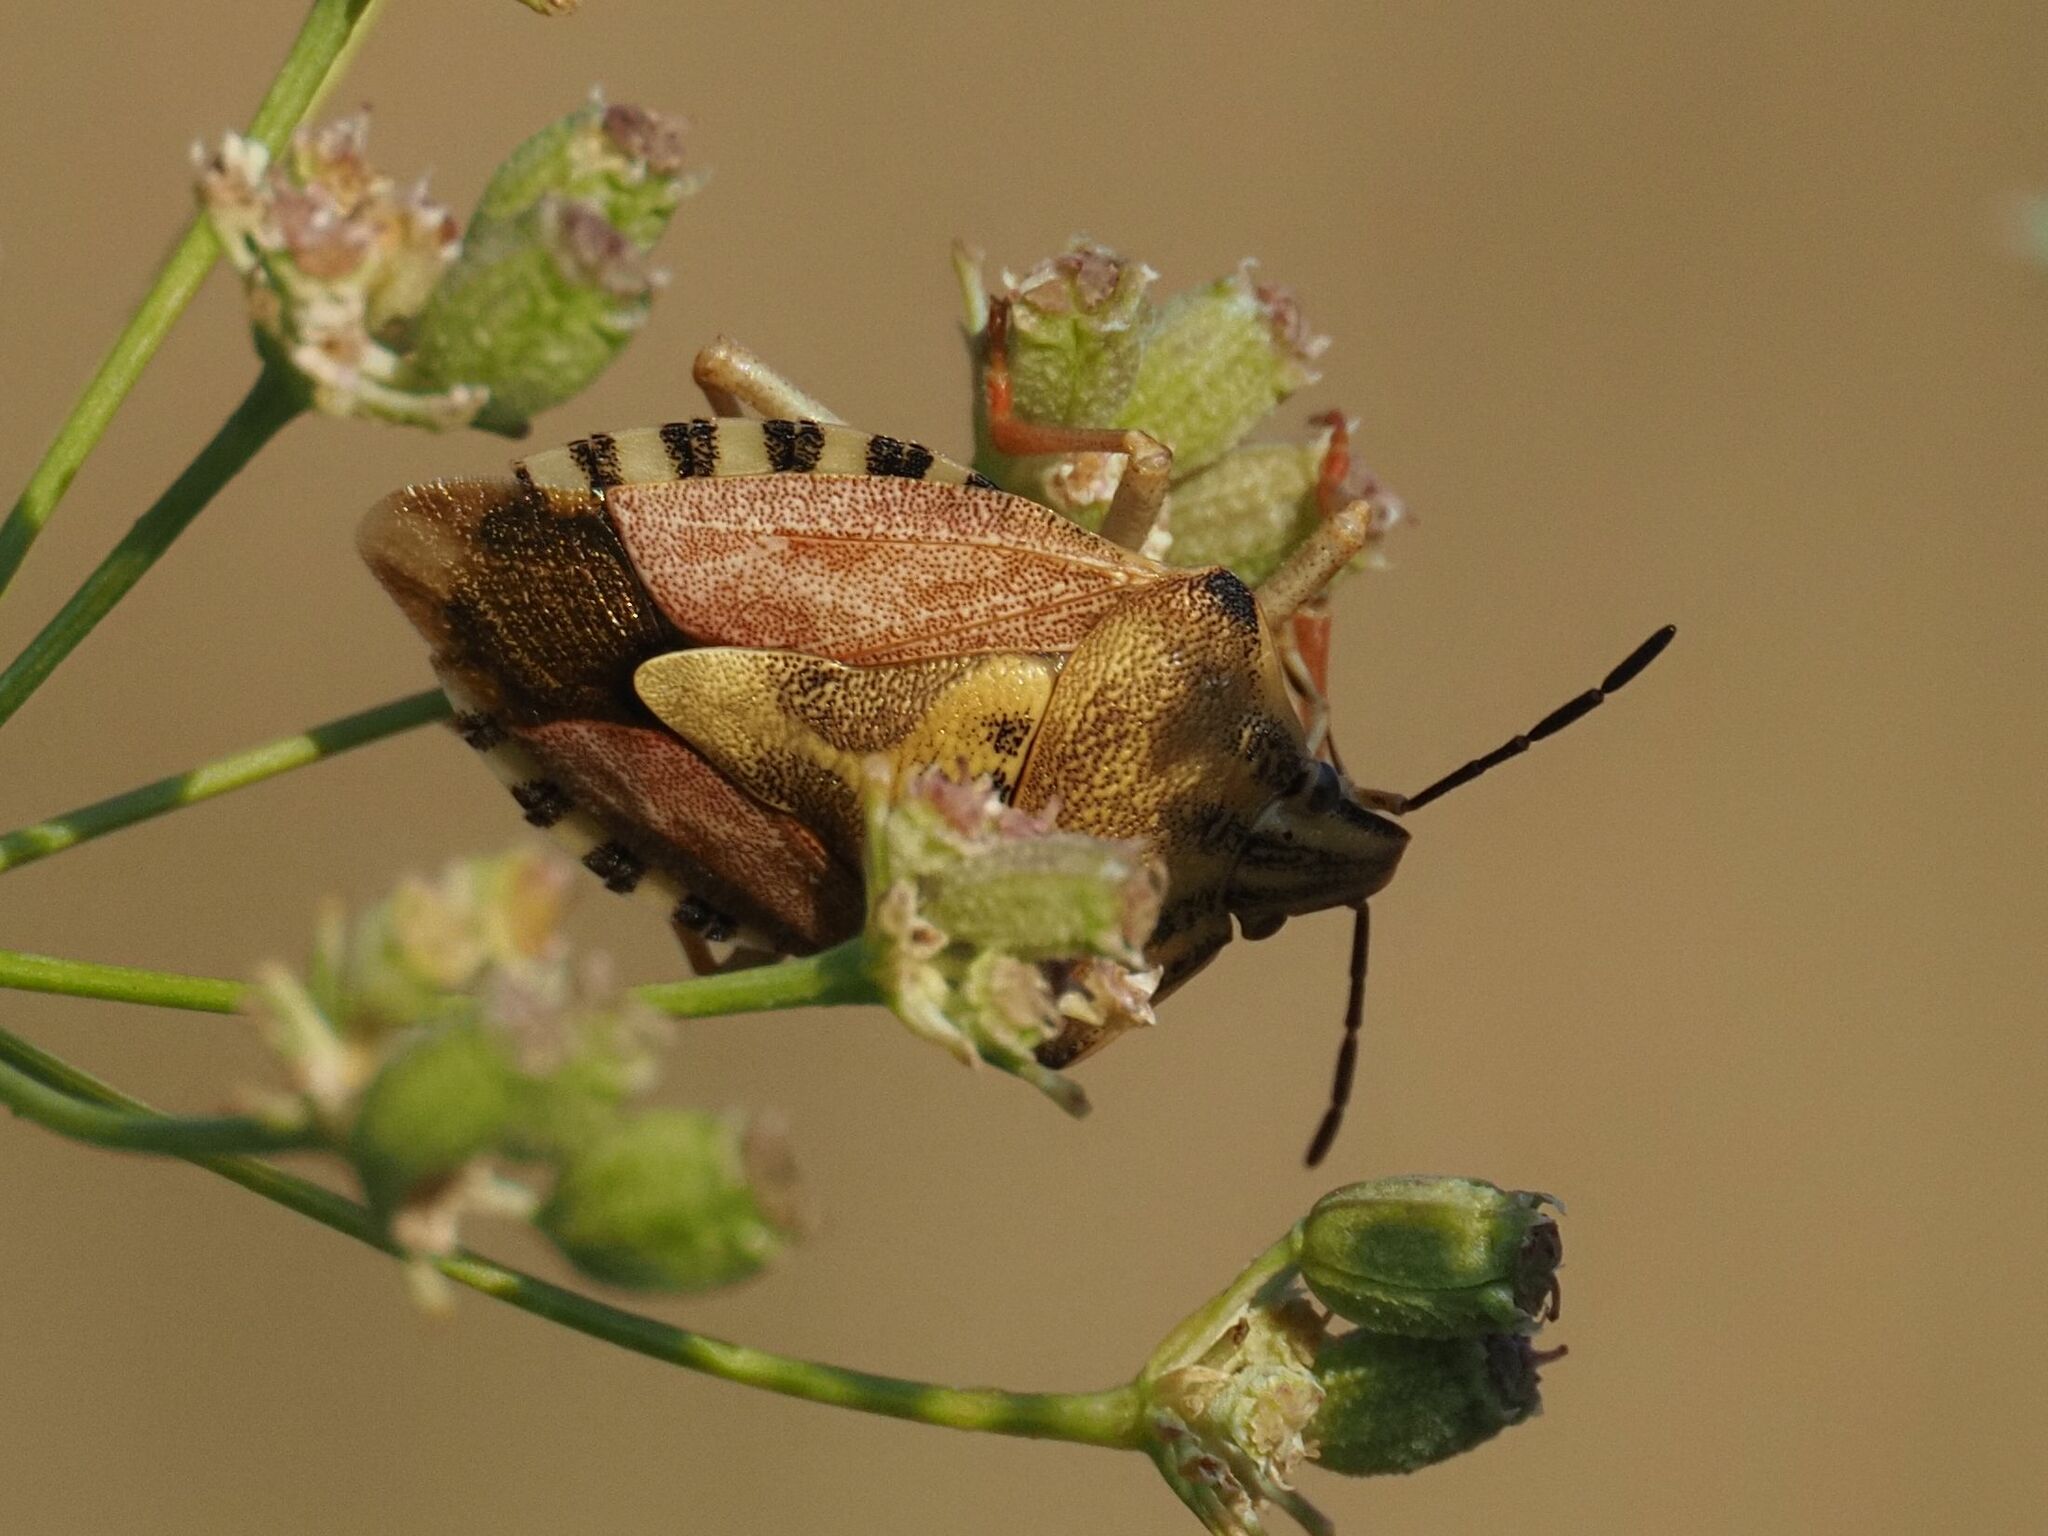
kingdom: Animalia
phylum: Arthropoda
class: Insecta
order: Hemiptera
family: Pentatomidae
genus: Carpocoris
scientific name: Carpocoris purpureipennis
